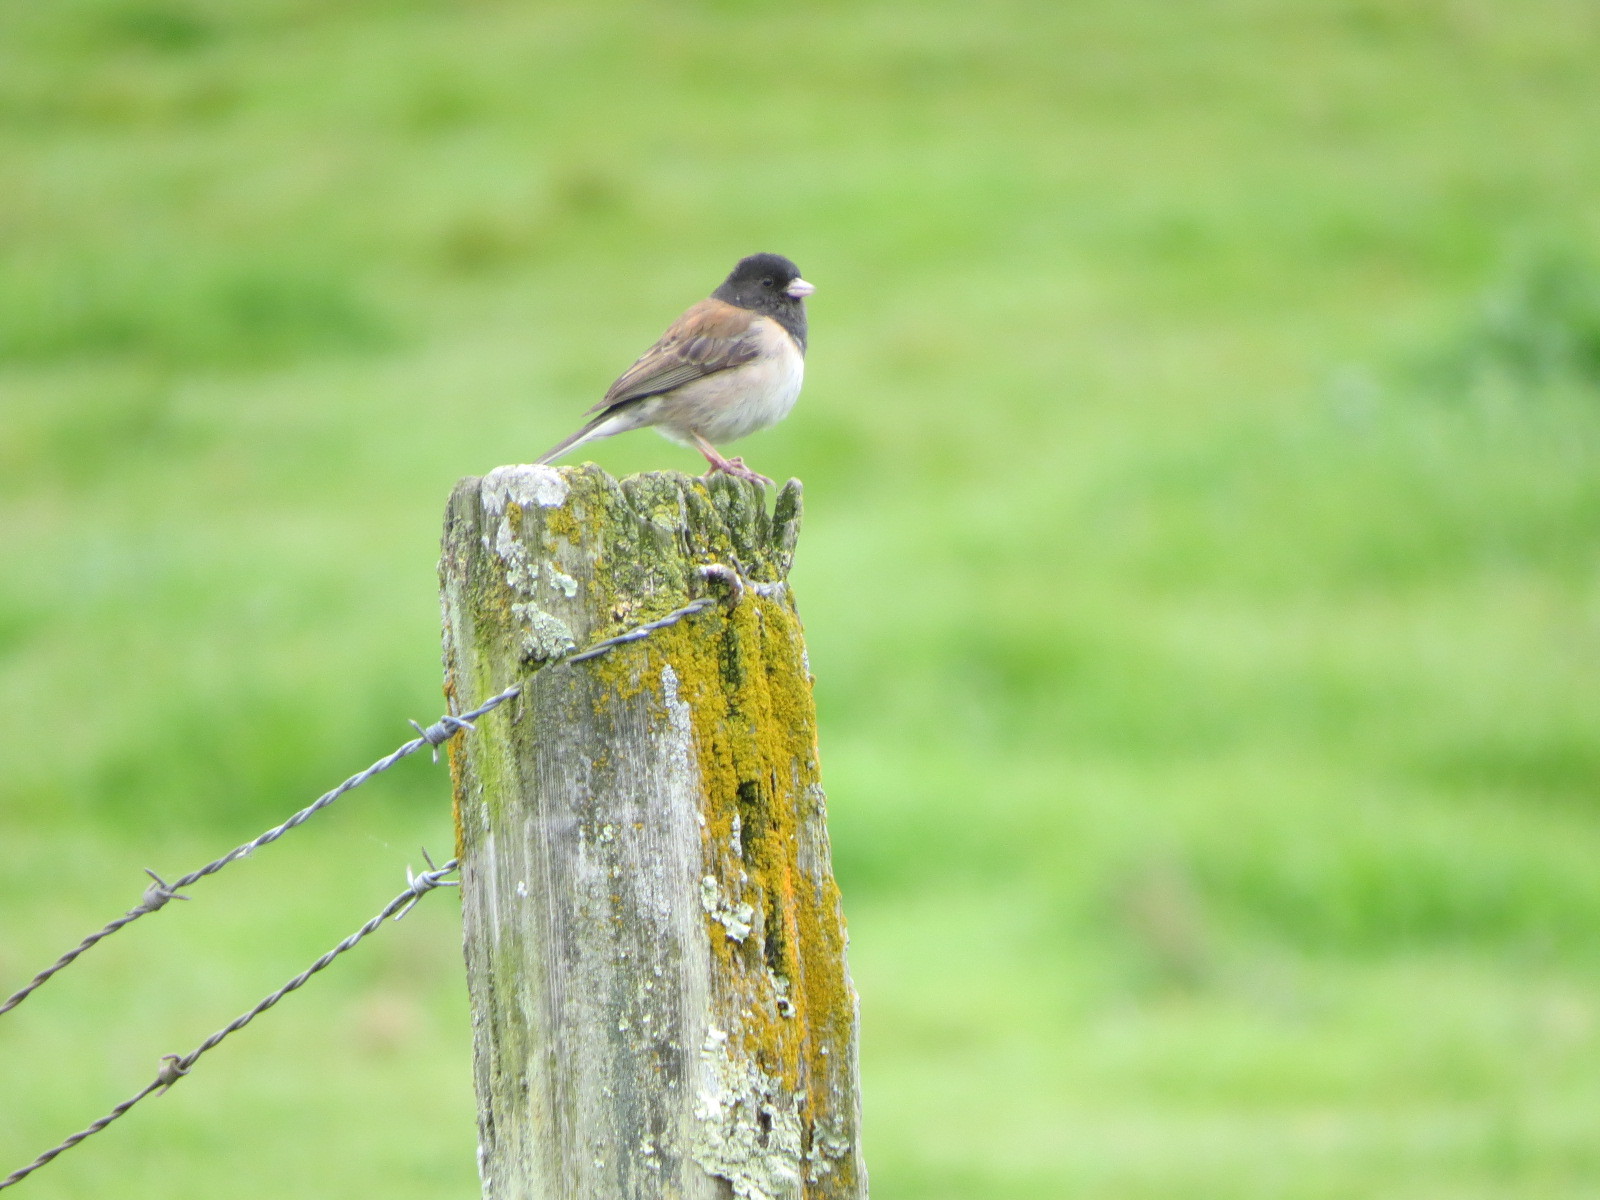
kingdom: Animalia
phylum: Chordata
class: Aves
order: Passeriformes
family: Passerellidae
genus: Junco
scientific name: Junco hyemalis
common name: Dark-eyed junco
